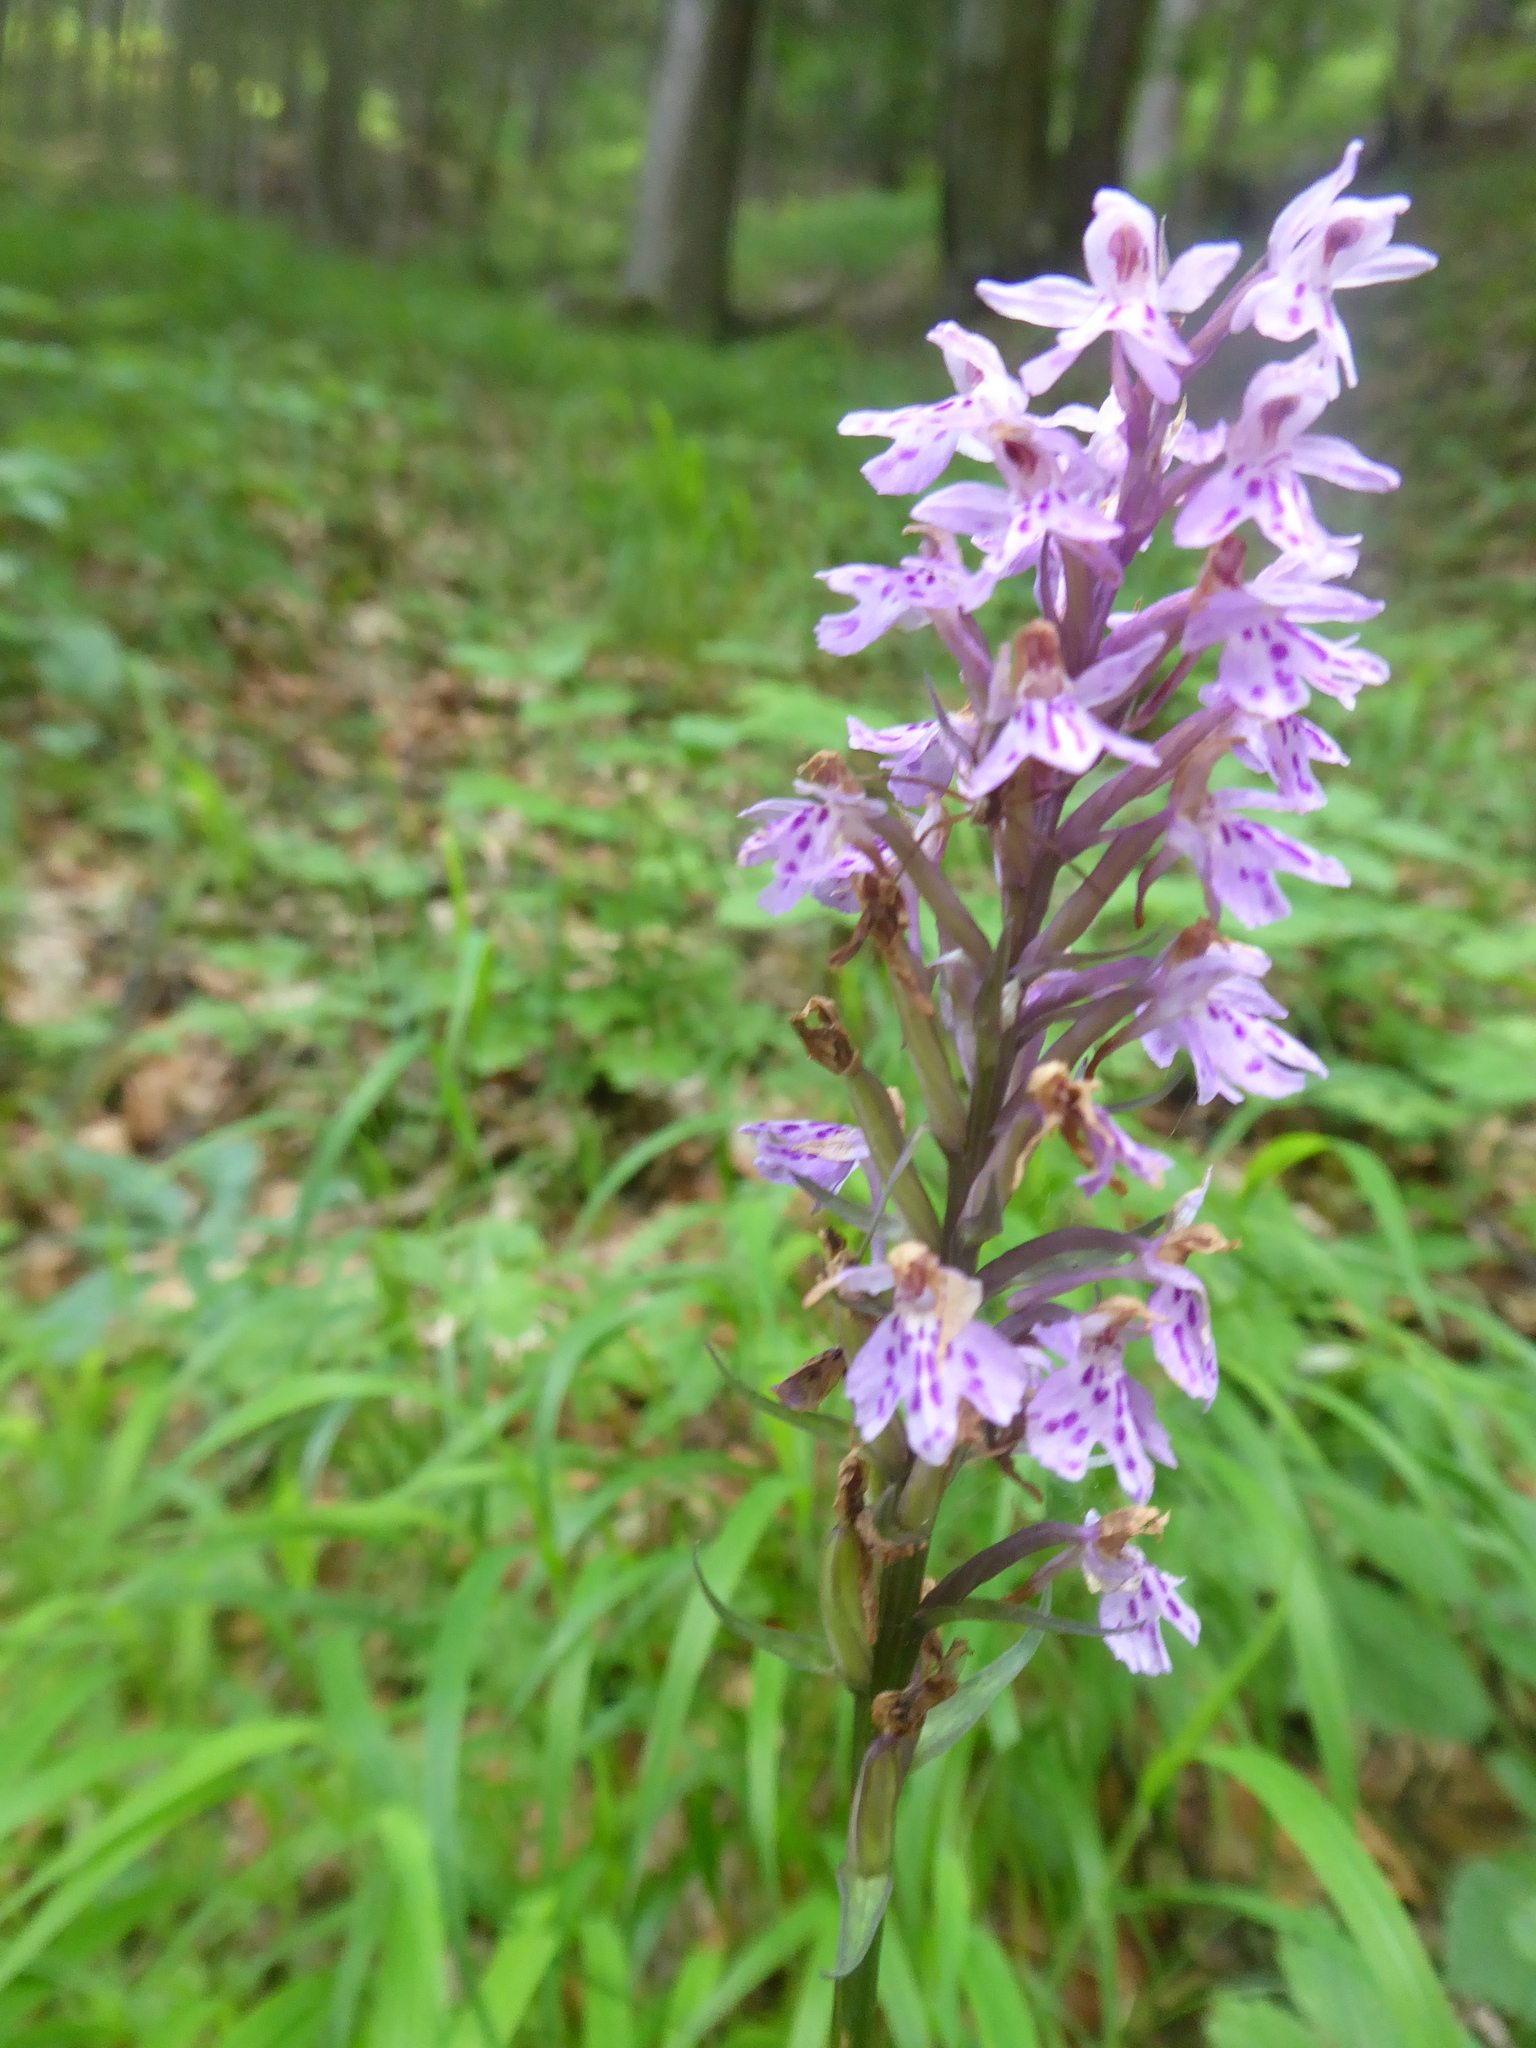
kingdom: Plantae
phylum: Tracheophyta
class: Liliopsida
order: Asparagales
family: Orchidaceae
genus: Dactylorhiza
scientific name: Dactylorhiza maculata
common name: Heath spotted-orchid
